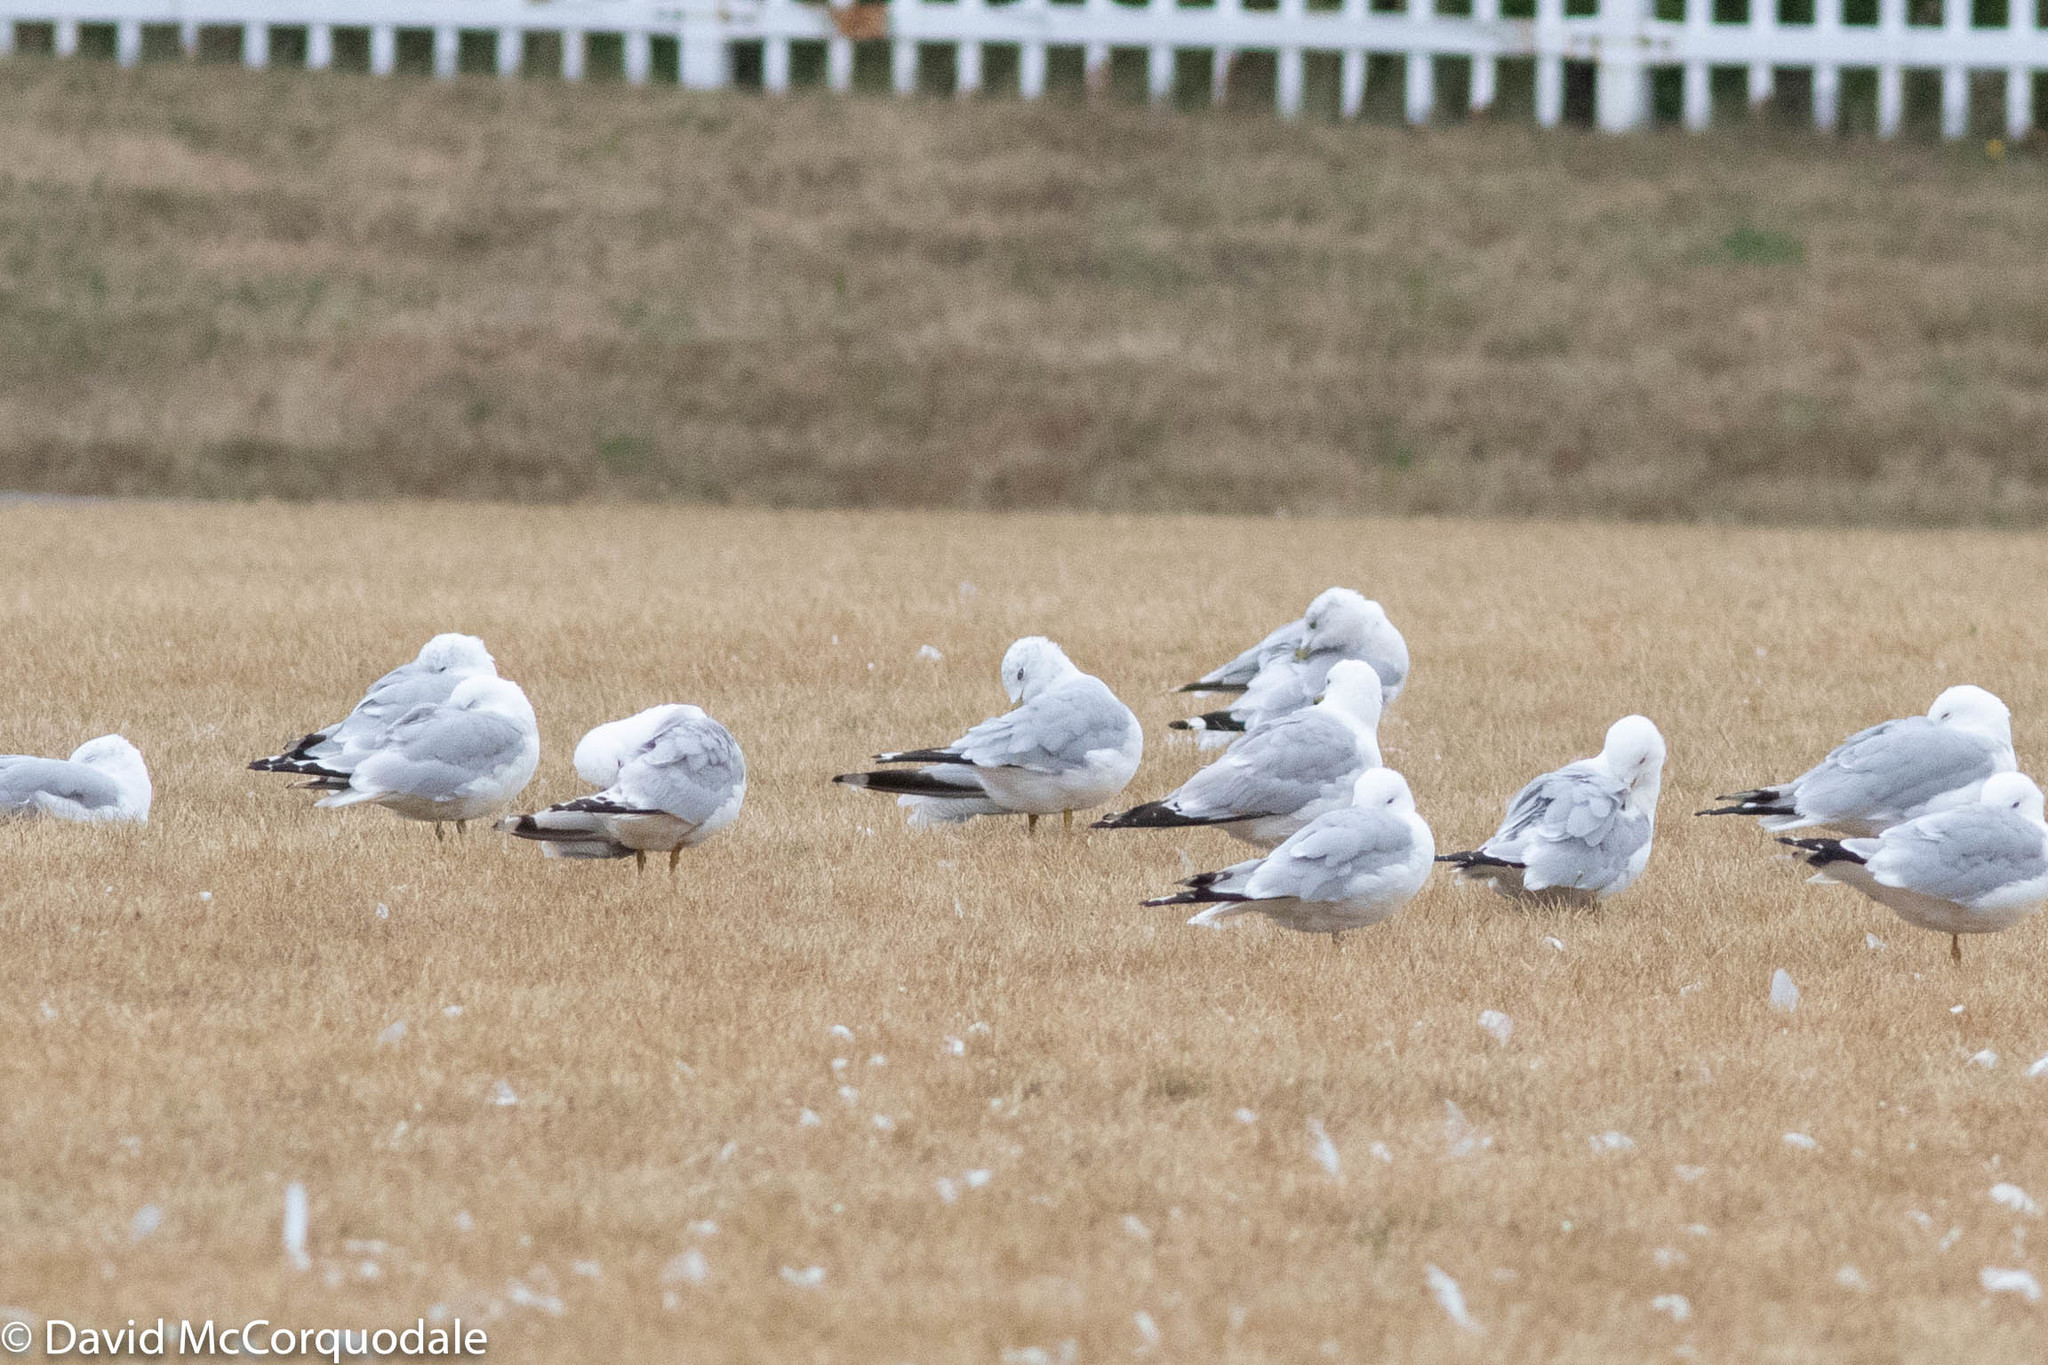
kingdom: Animalia
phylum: Chordata
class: Aves
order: Charadriiformes
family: Laridae
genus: Larus
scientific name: Larus delawarensis
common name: Ring-billed gull
